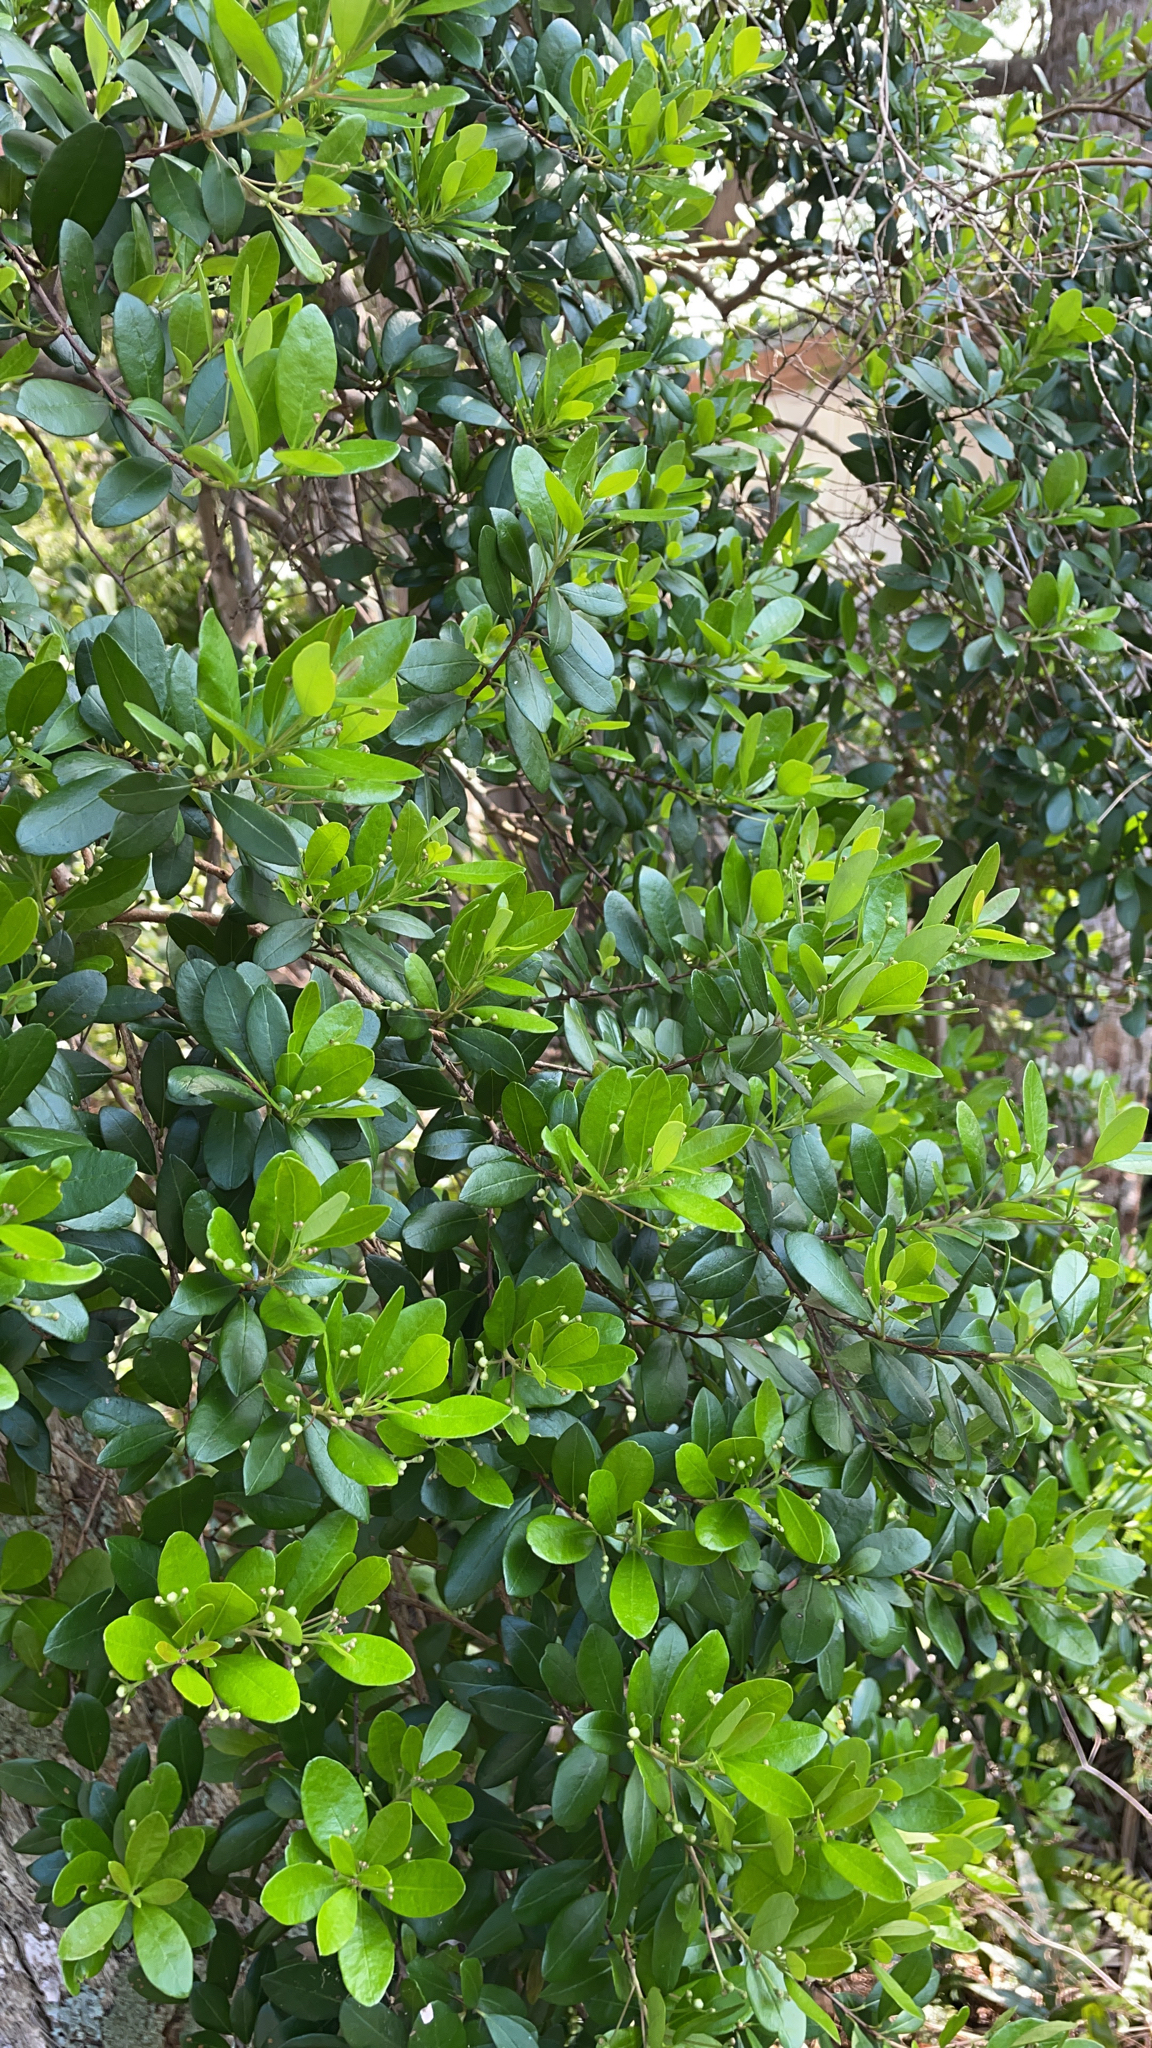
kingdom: Plantae
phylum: Tracheophyta
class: Magnoliopsida
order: Myrtales
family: Myrtaceae
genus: Myrcianthes
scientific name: Myrcianthes fragrans
